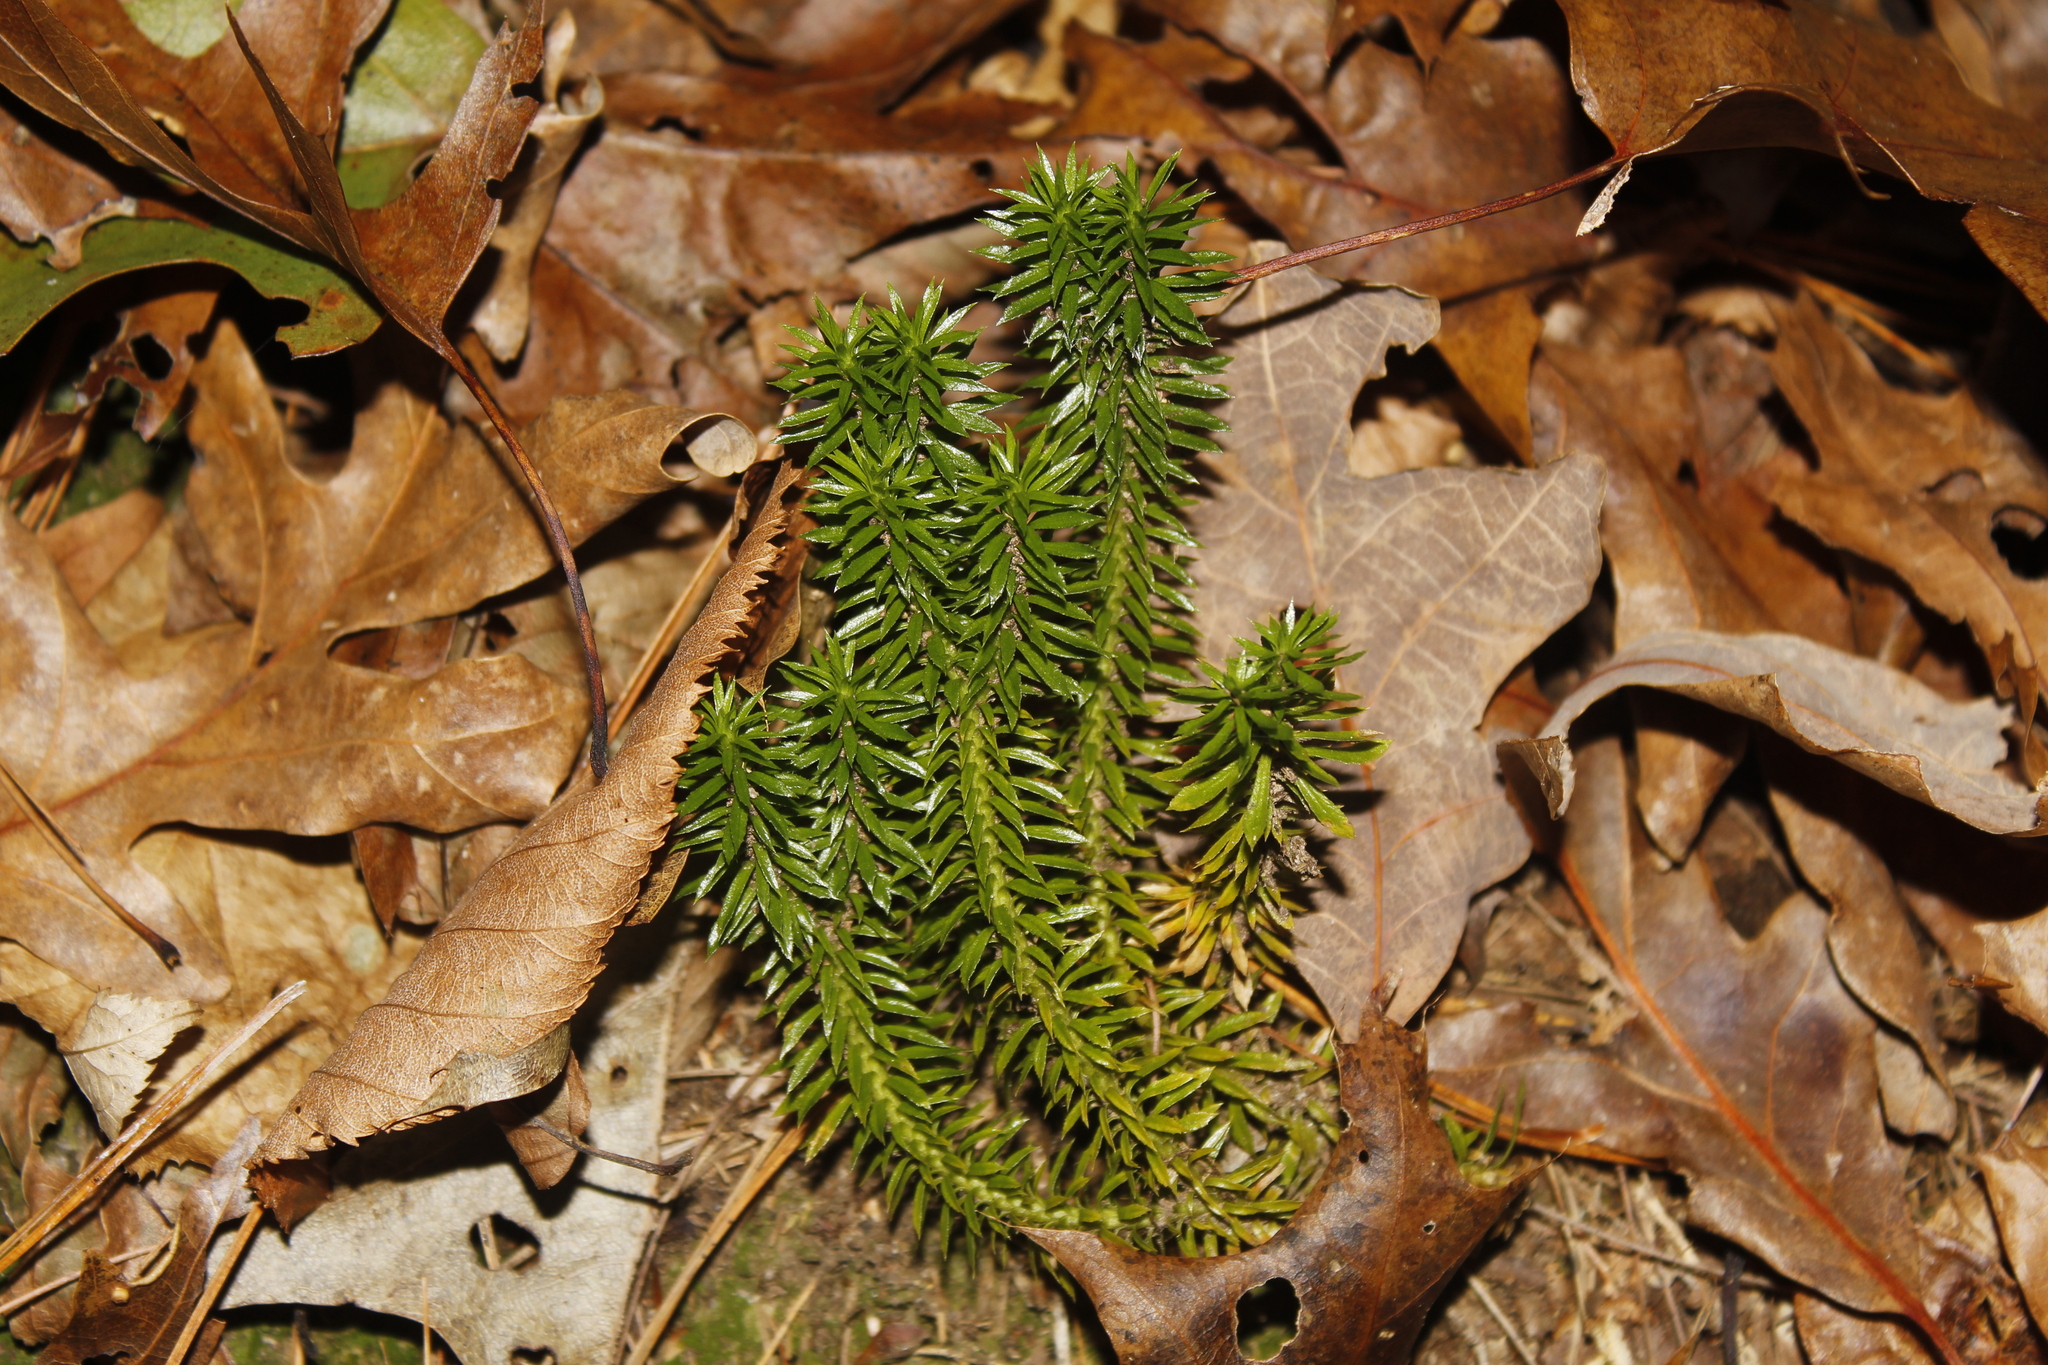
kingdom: Plantae
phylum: Tracheophyta
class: Lycopodiopsida
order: Lycopodiales
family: Lycopodiaceae
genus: Huperzia
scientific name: Huperzia lucidula
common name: Shining clubmoss
